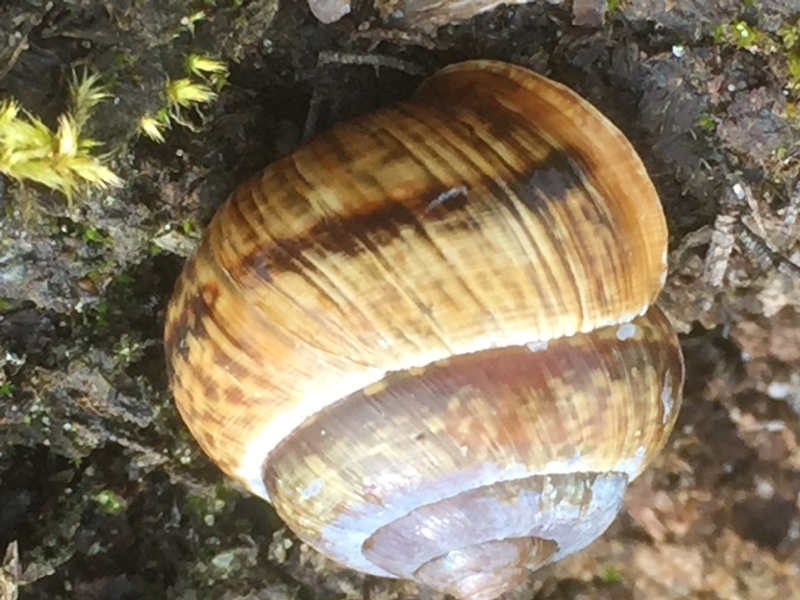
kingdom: Animalia
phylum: Mollusca
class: Gastropoda
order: Stylommatophora
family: Helicidae
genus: Arianta
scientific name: Arianta arbustorum
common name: Copse snail
